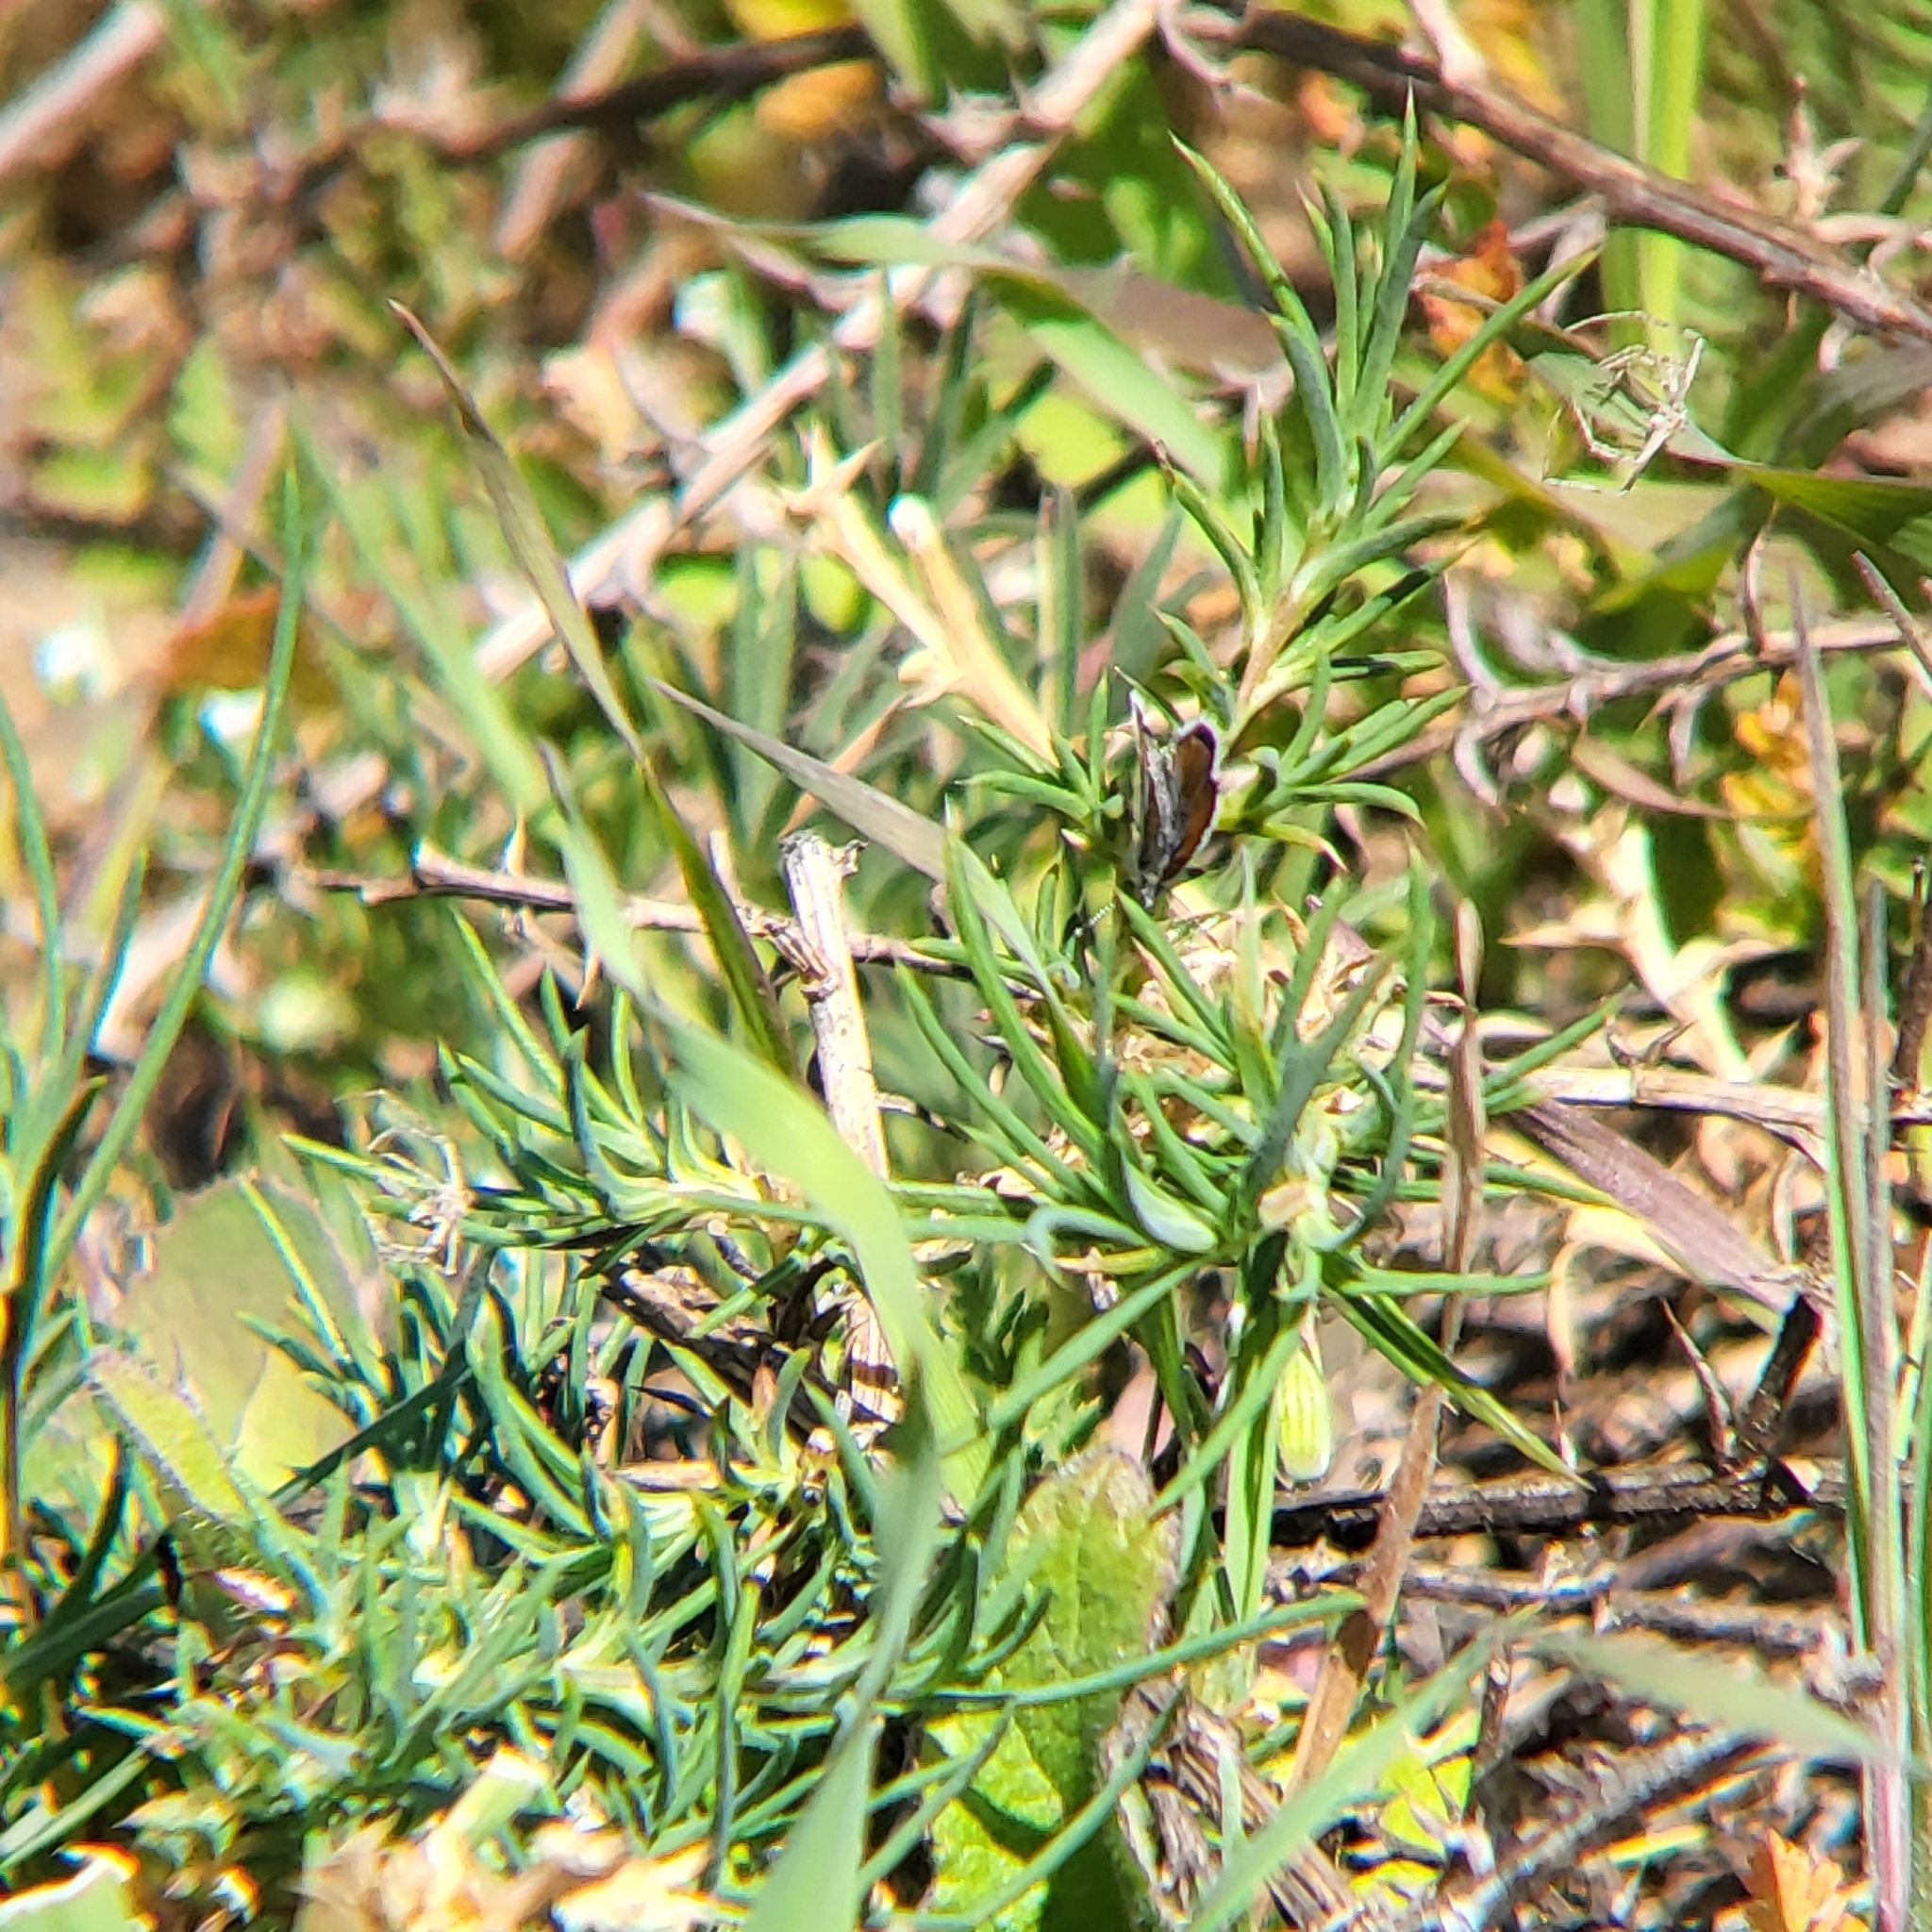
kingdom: Animalia
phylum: Arthropoda
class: Insecta
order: Lepidoptera
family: Lycaenidae
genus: Brephidium
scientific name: Brephidium exilis
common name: Pygmy blue
